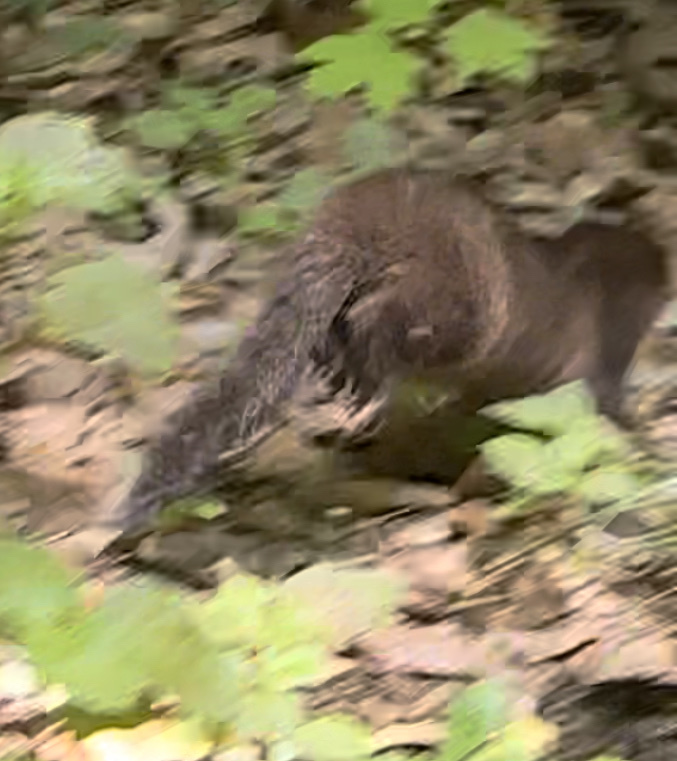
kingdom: Animalia
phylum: Chordata
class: Mammalia
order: Carnivora
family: Mustelidae
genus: Mustela
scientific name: Mustela
